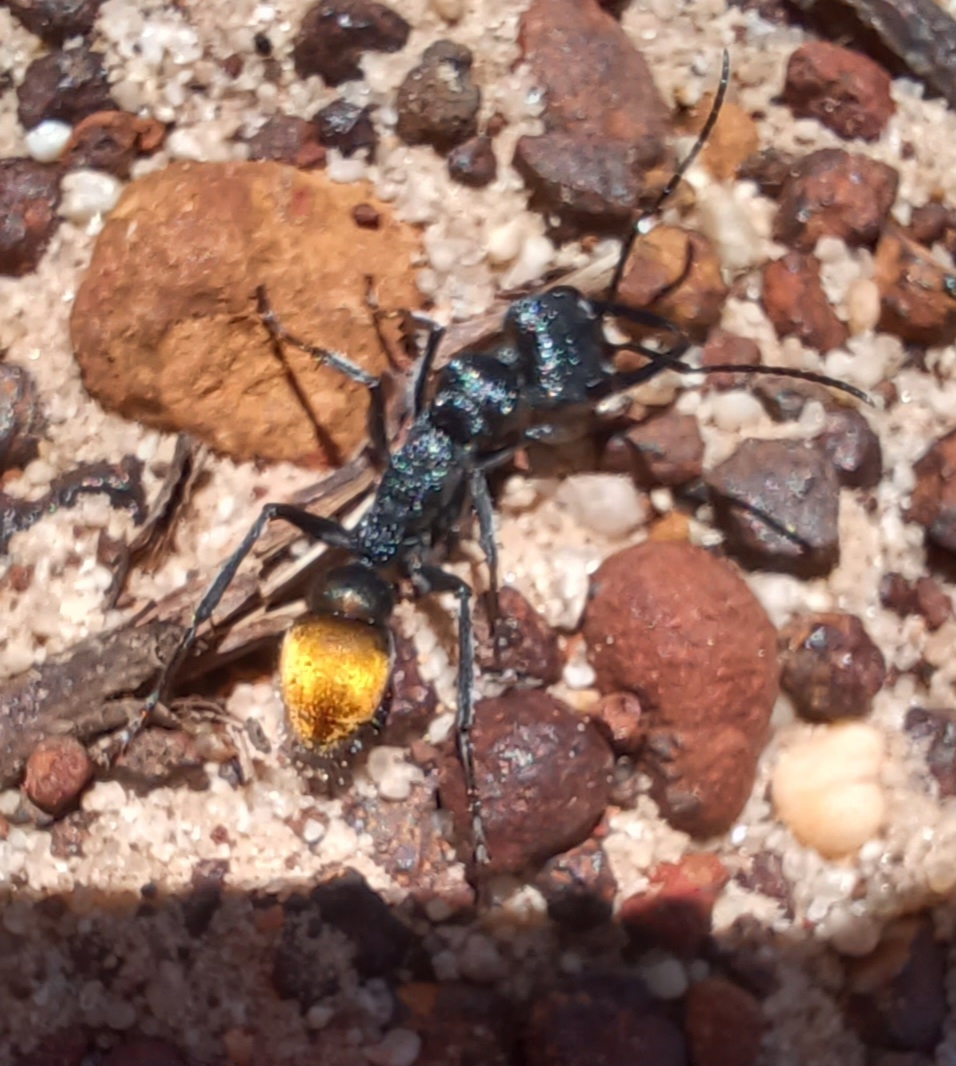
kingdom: Animalia
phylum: Arthropoda
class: Insecta
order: Hymenoptera
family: Formicidae
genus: Myrmecia
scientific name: Myrmecia mandibularis
